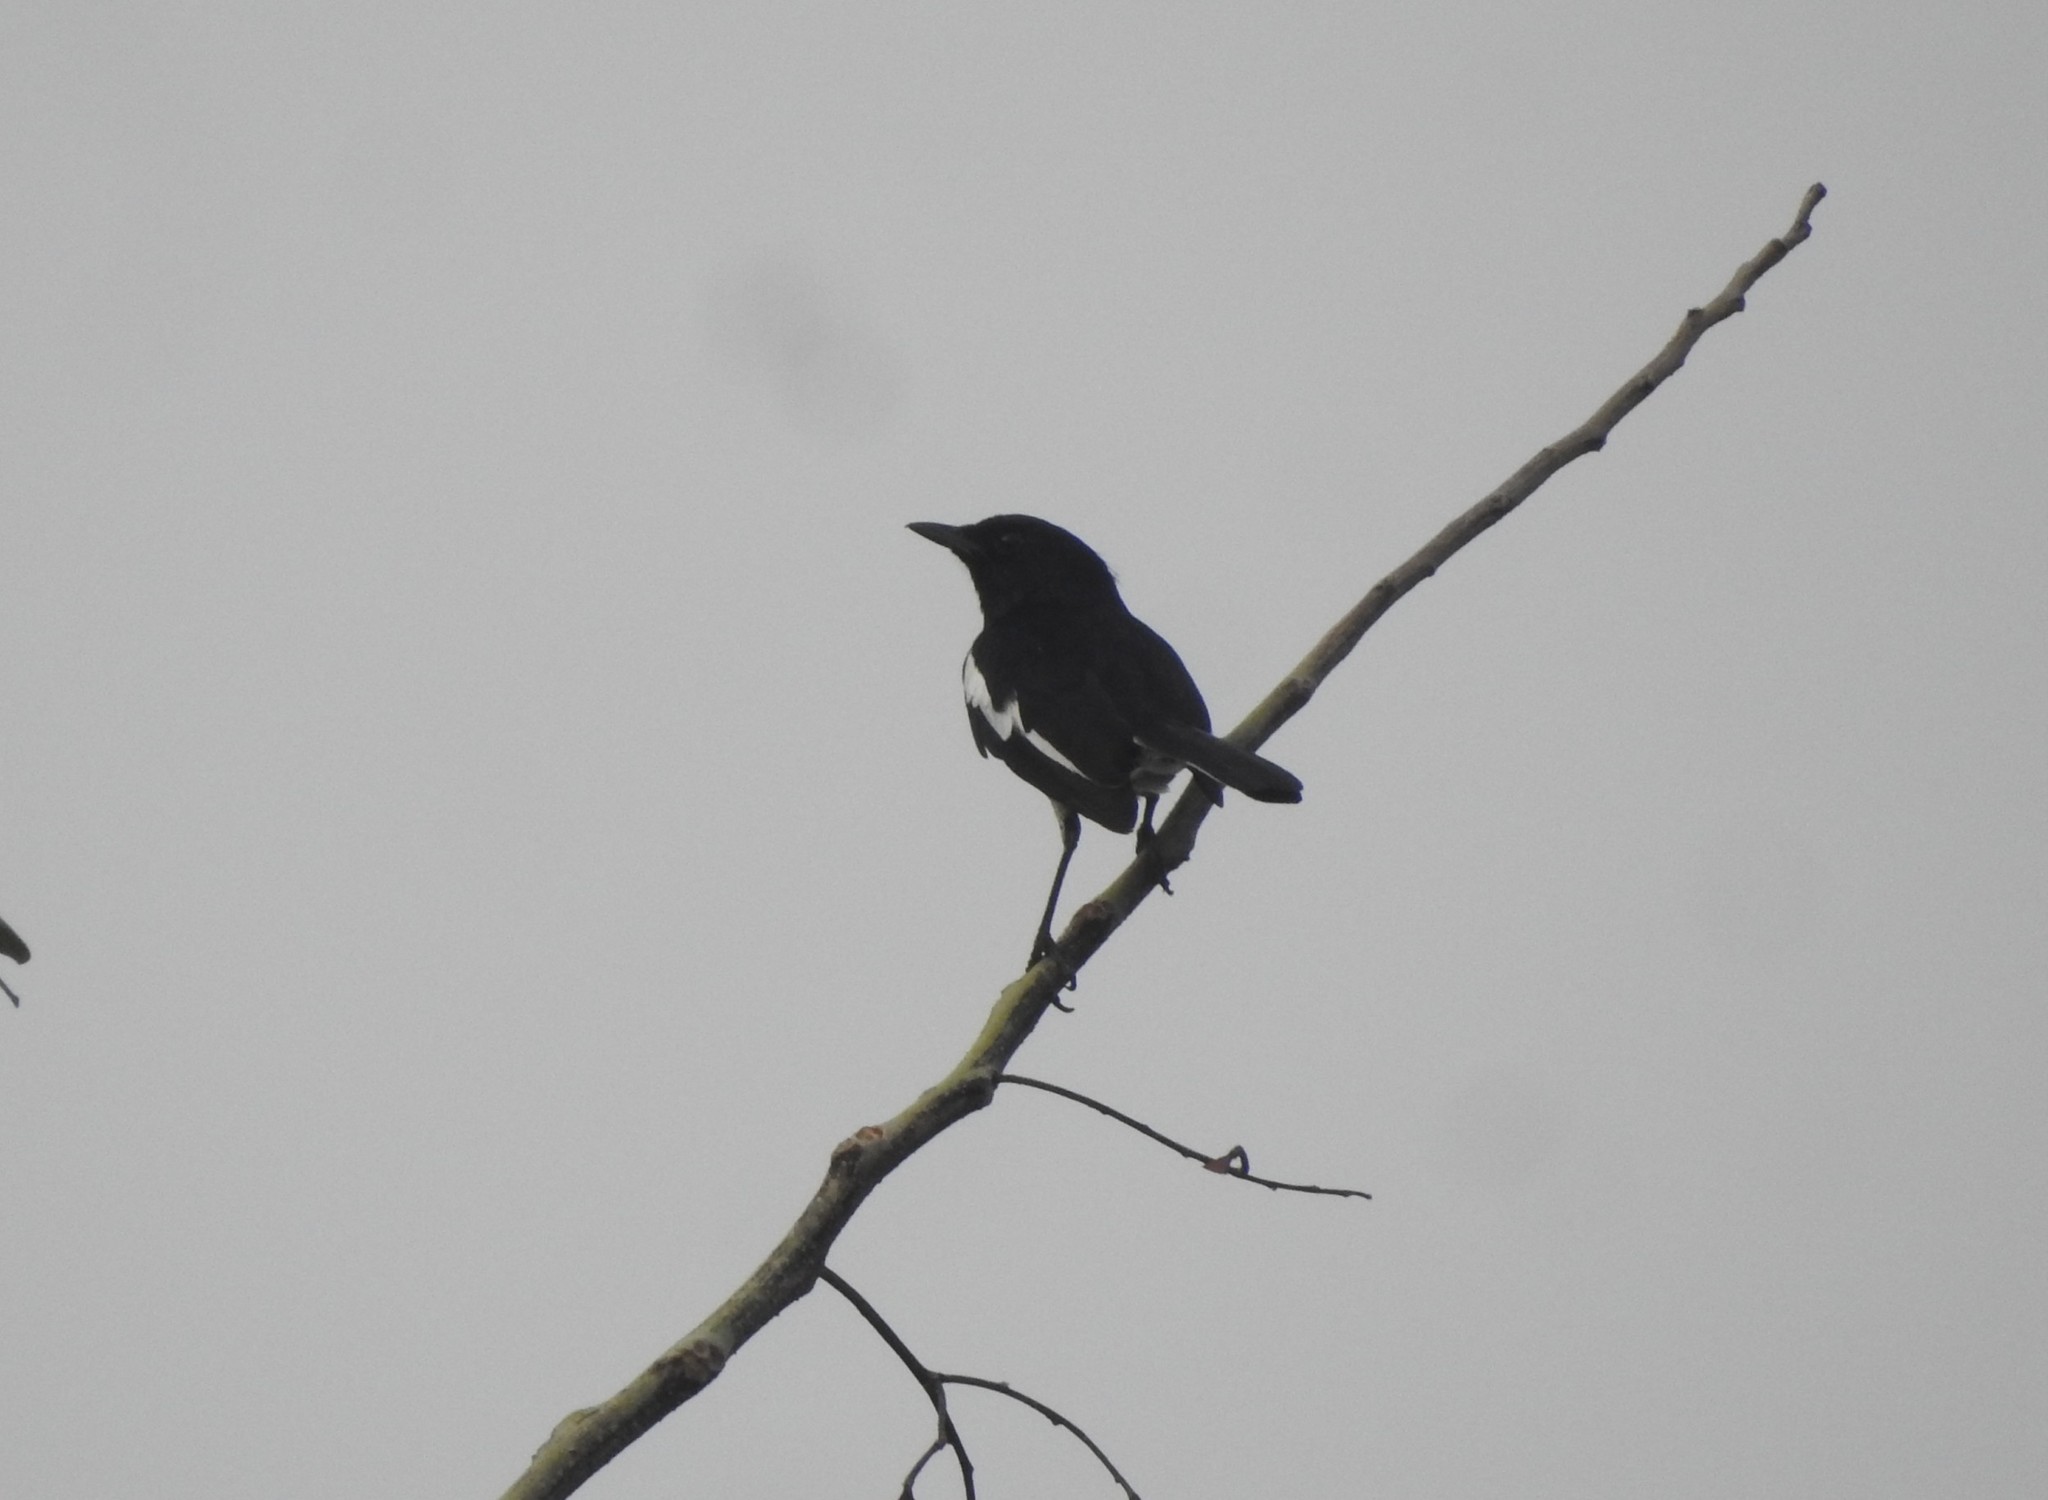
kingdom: Animalia
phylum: Chordata
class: Aves
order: Passeriformes
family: Muscicapidae
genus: Copsychus
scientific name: Copsychus saularis
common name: Oriental magpie-robin
